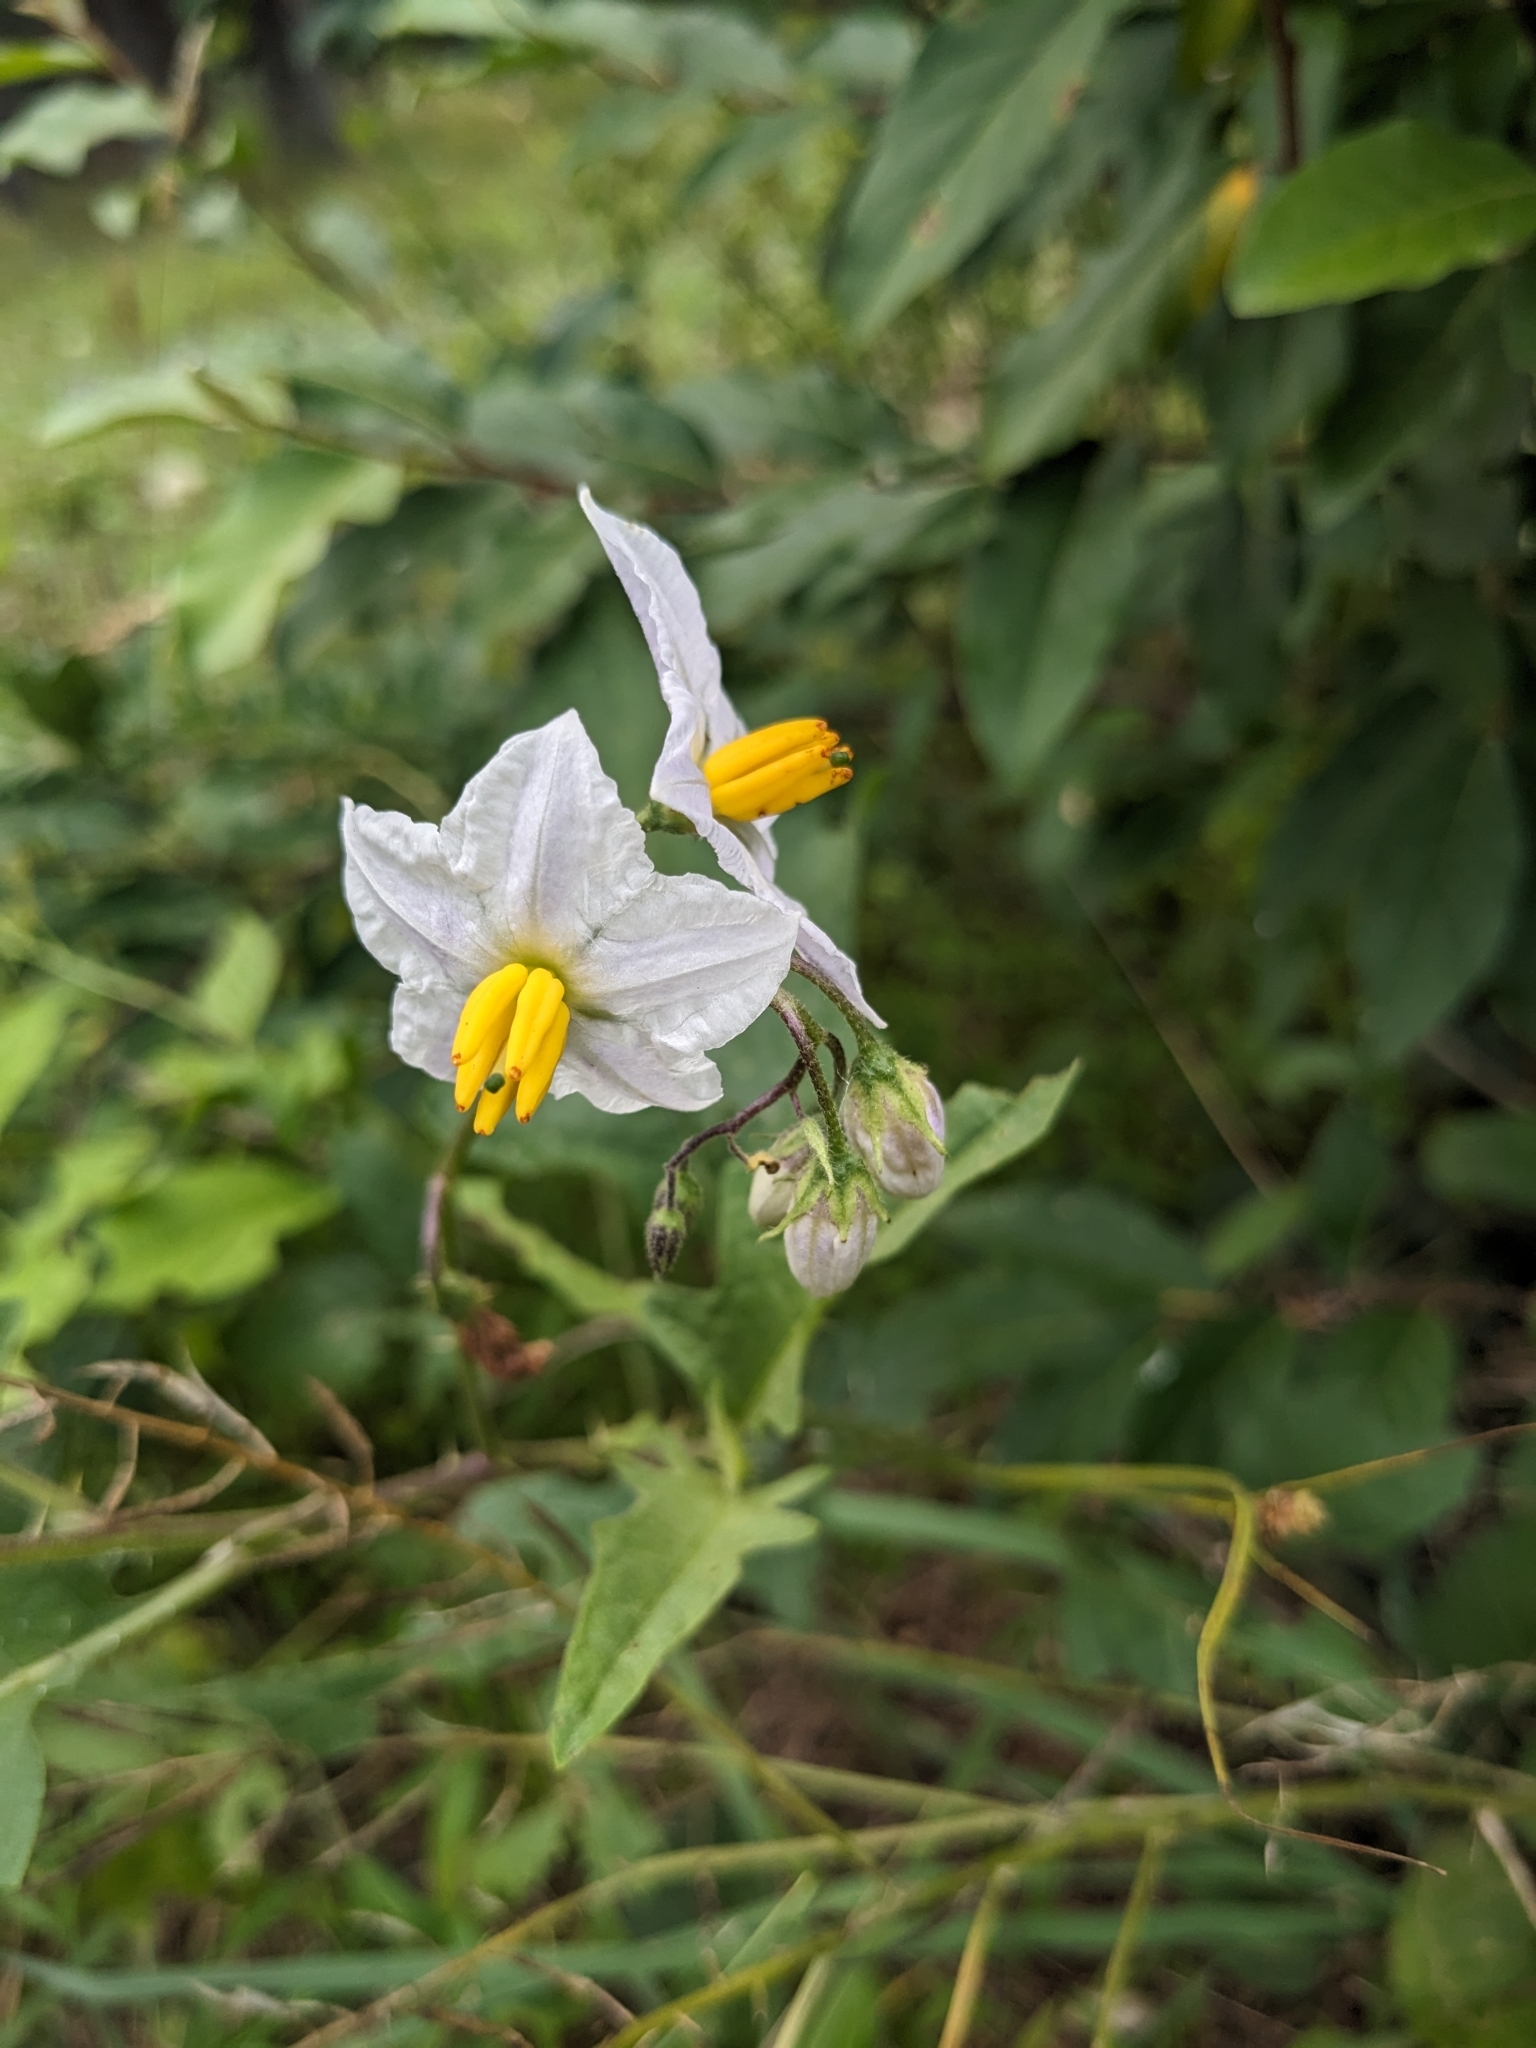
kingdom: Plantae
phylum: Tracheophyta
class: Magnoliopsida
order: Solanales
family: Solanaceae
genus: Solanum
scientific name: Solanum carolinense
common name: Horse-nettle
